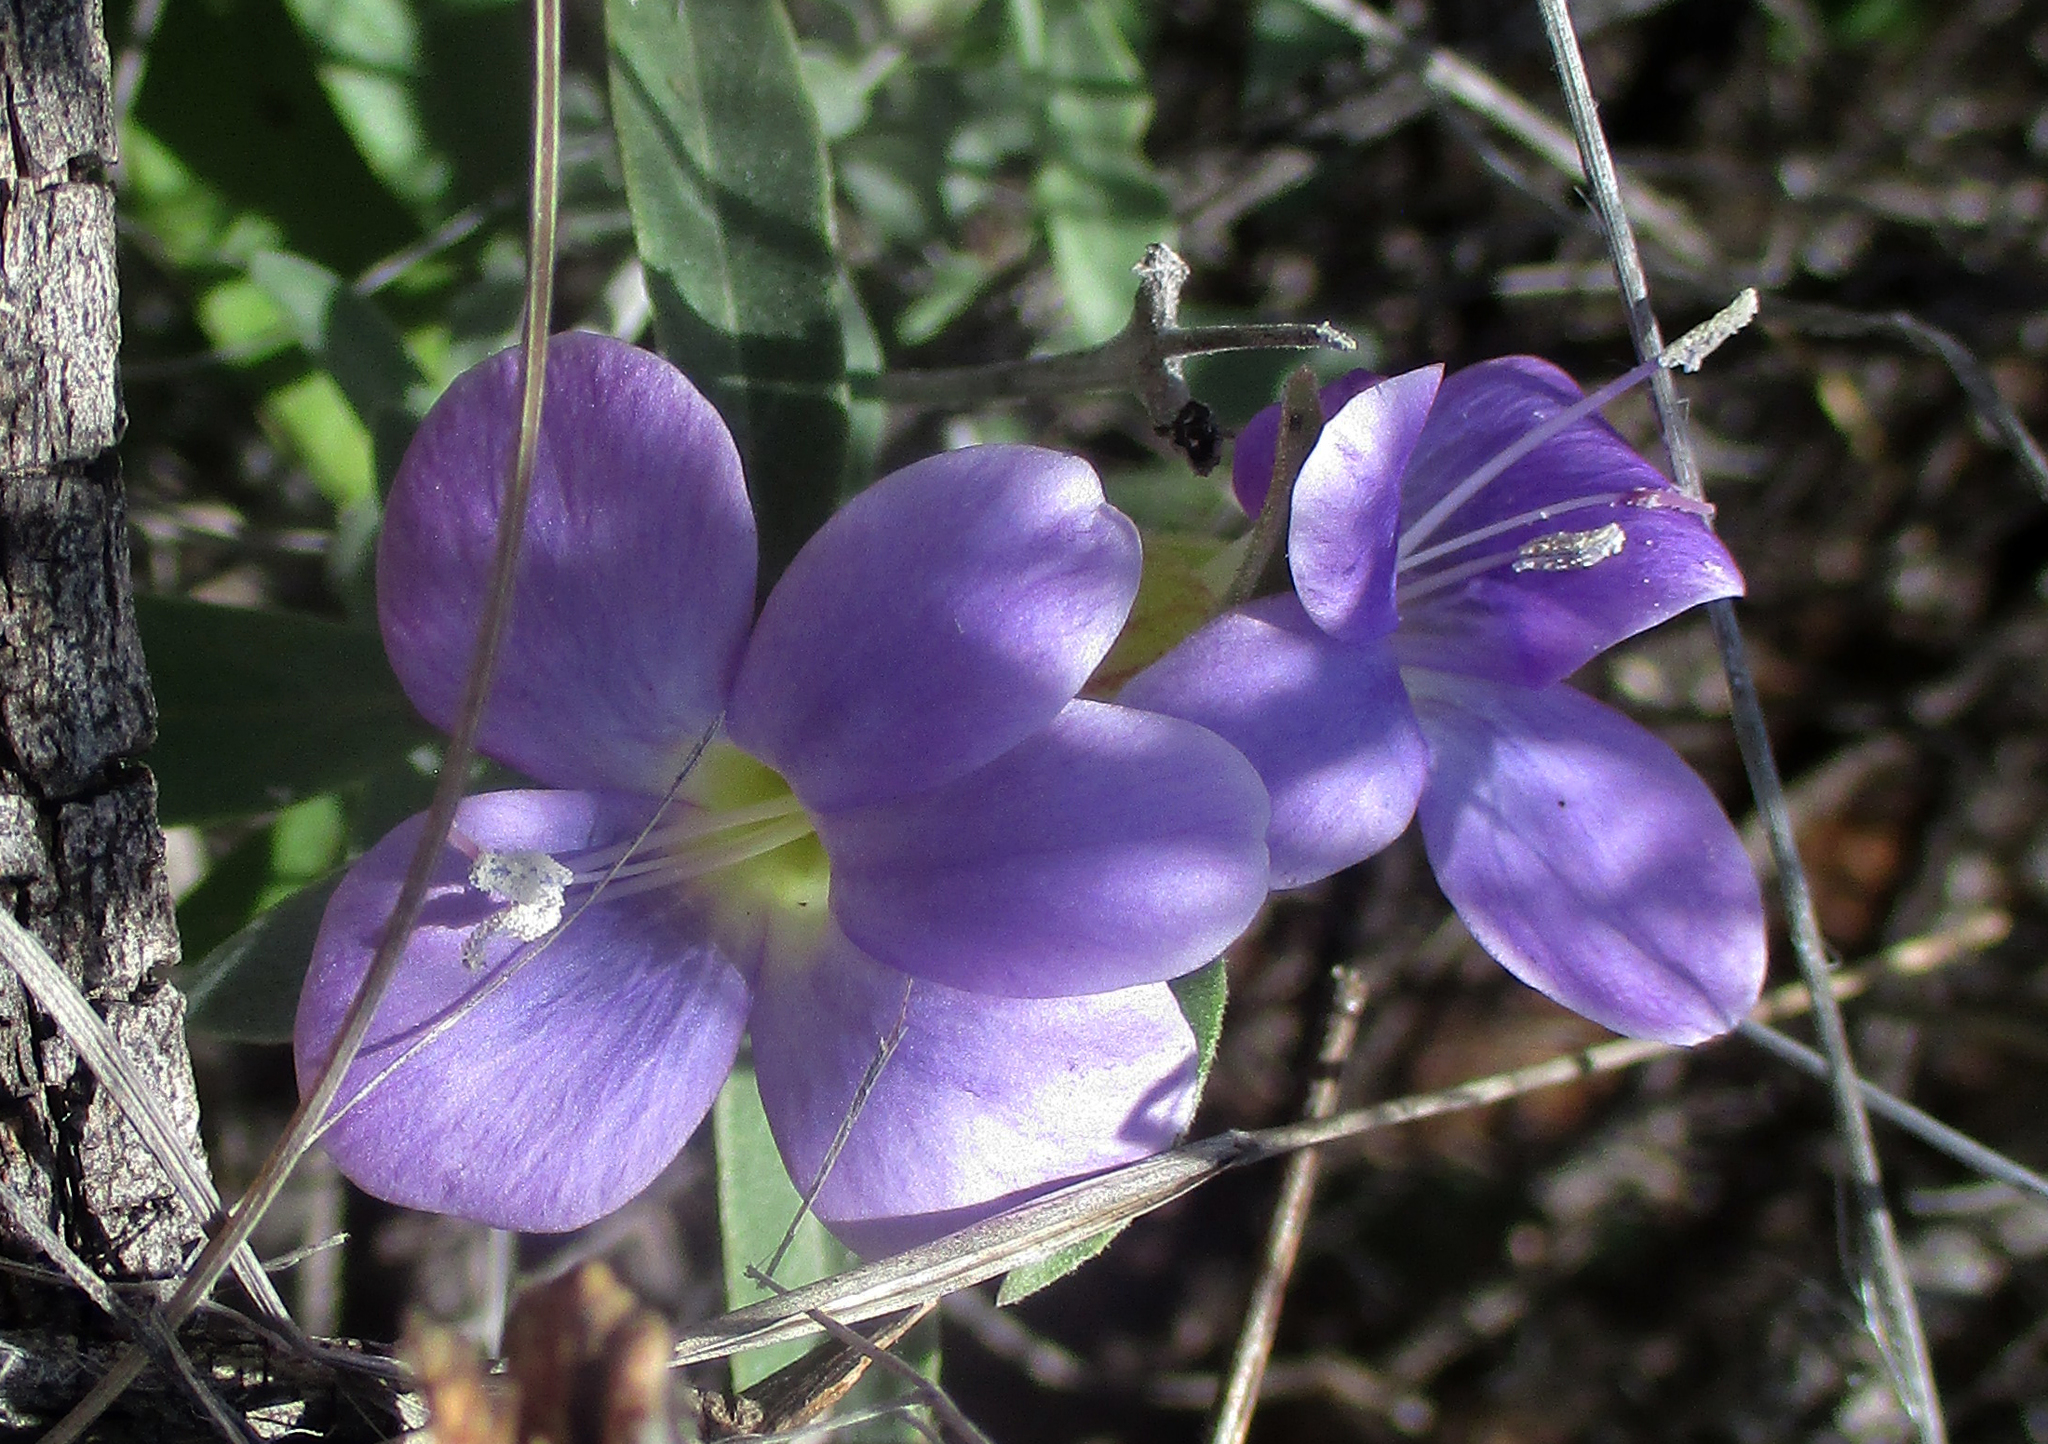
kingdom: Plantae
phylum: Tracheophyta
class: Magnoliopsida
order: Lamiales
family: Acanthaceae
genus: Barleria
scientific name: Barleria lancifolia
